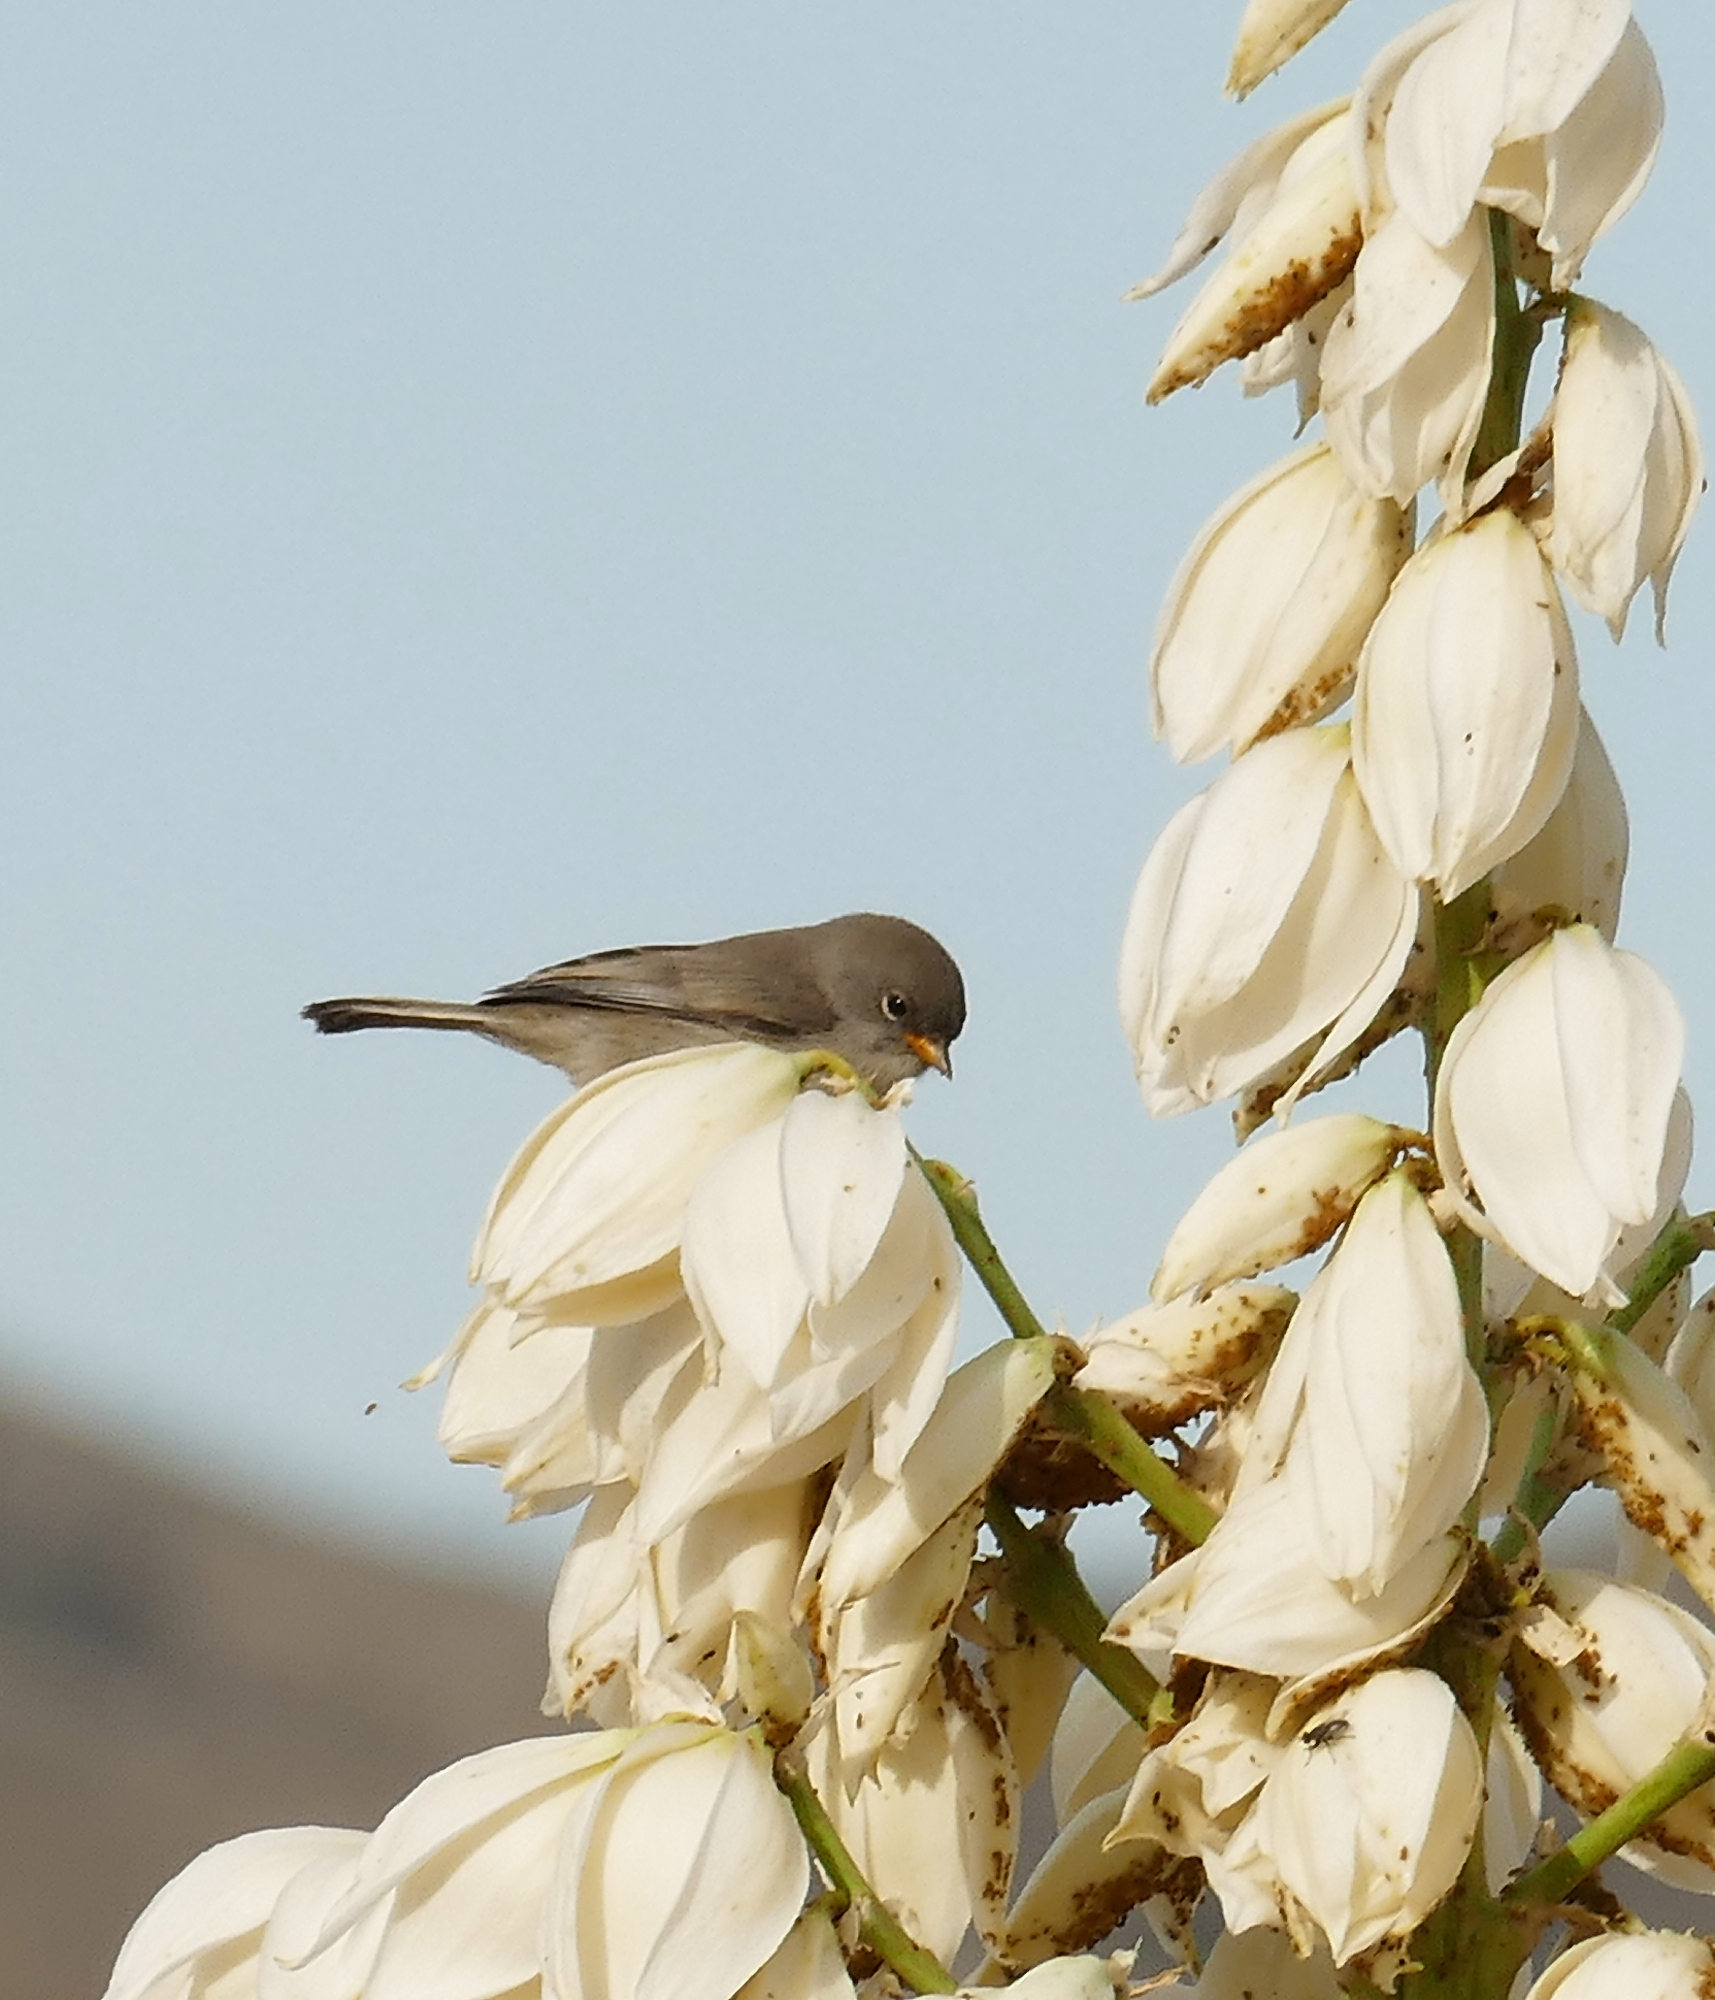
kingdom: Animalia
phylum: Chordata
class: Aves
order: Passeriformes
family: Remizidae
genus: Auriparus
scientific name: Auriparus flaviceps
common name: Verdin
